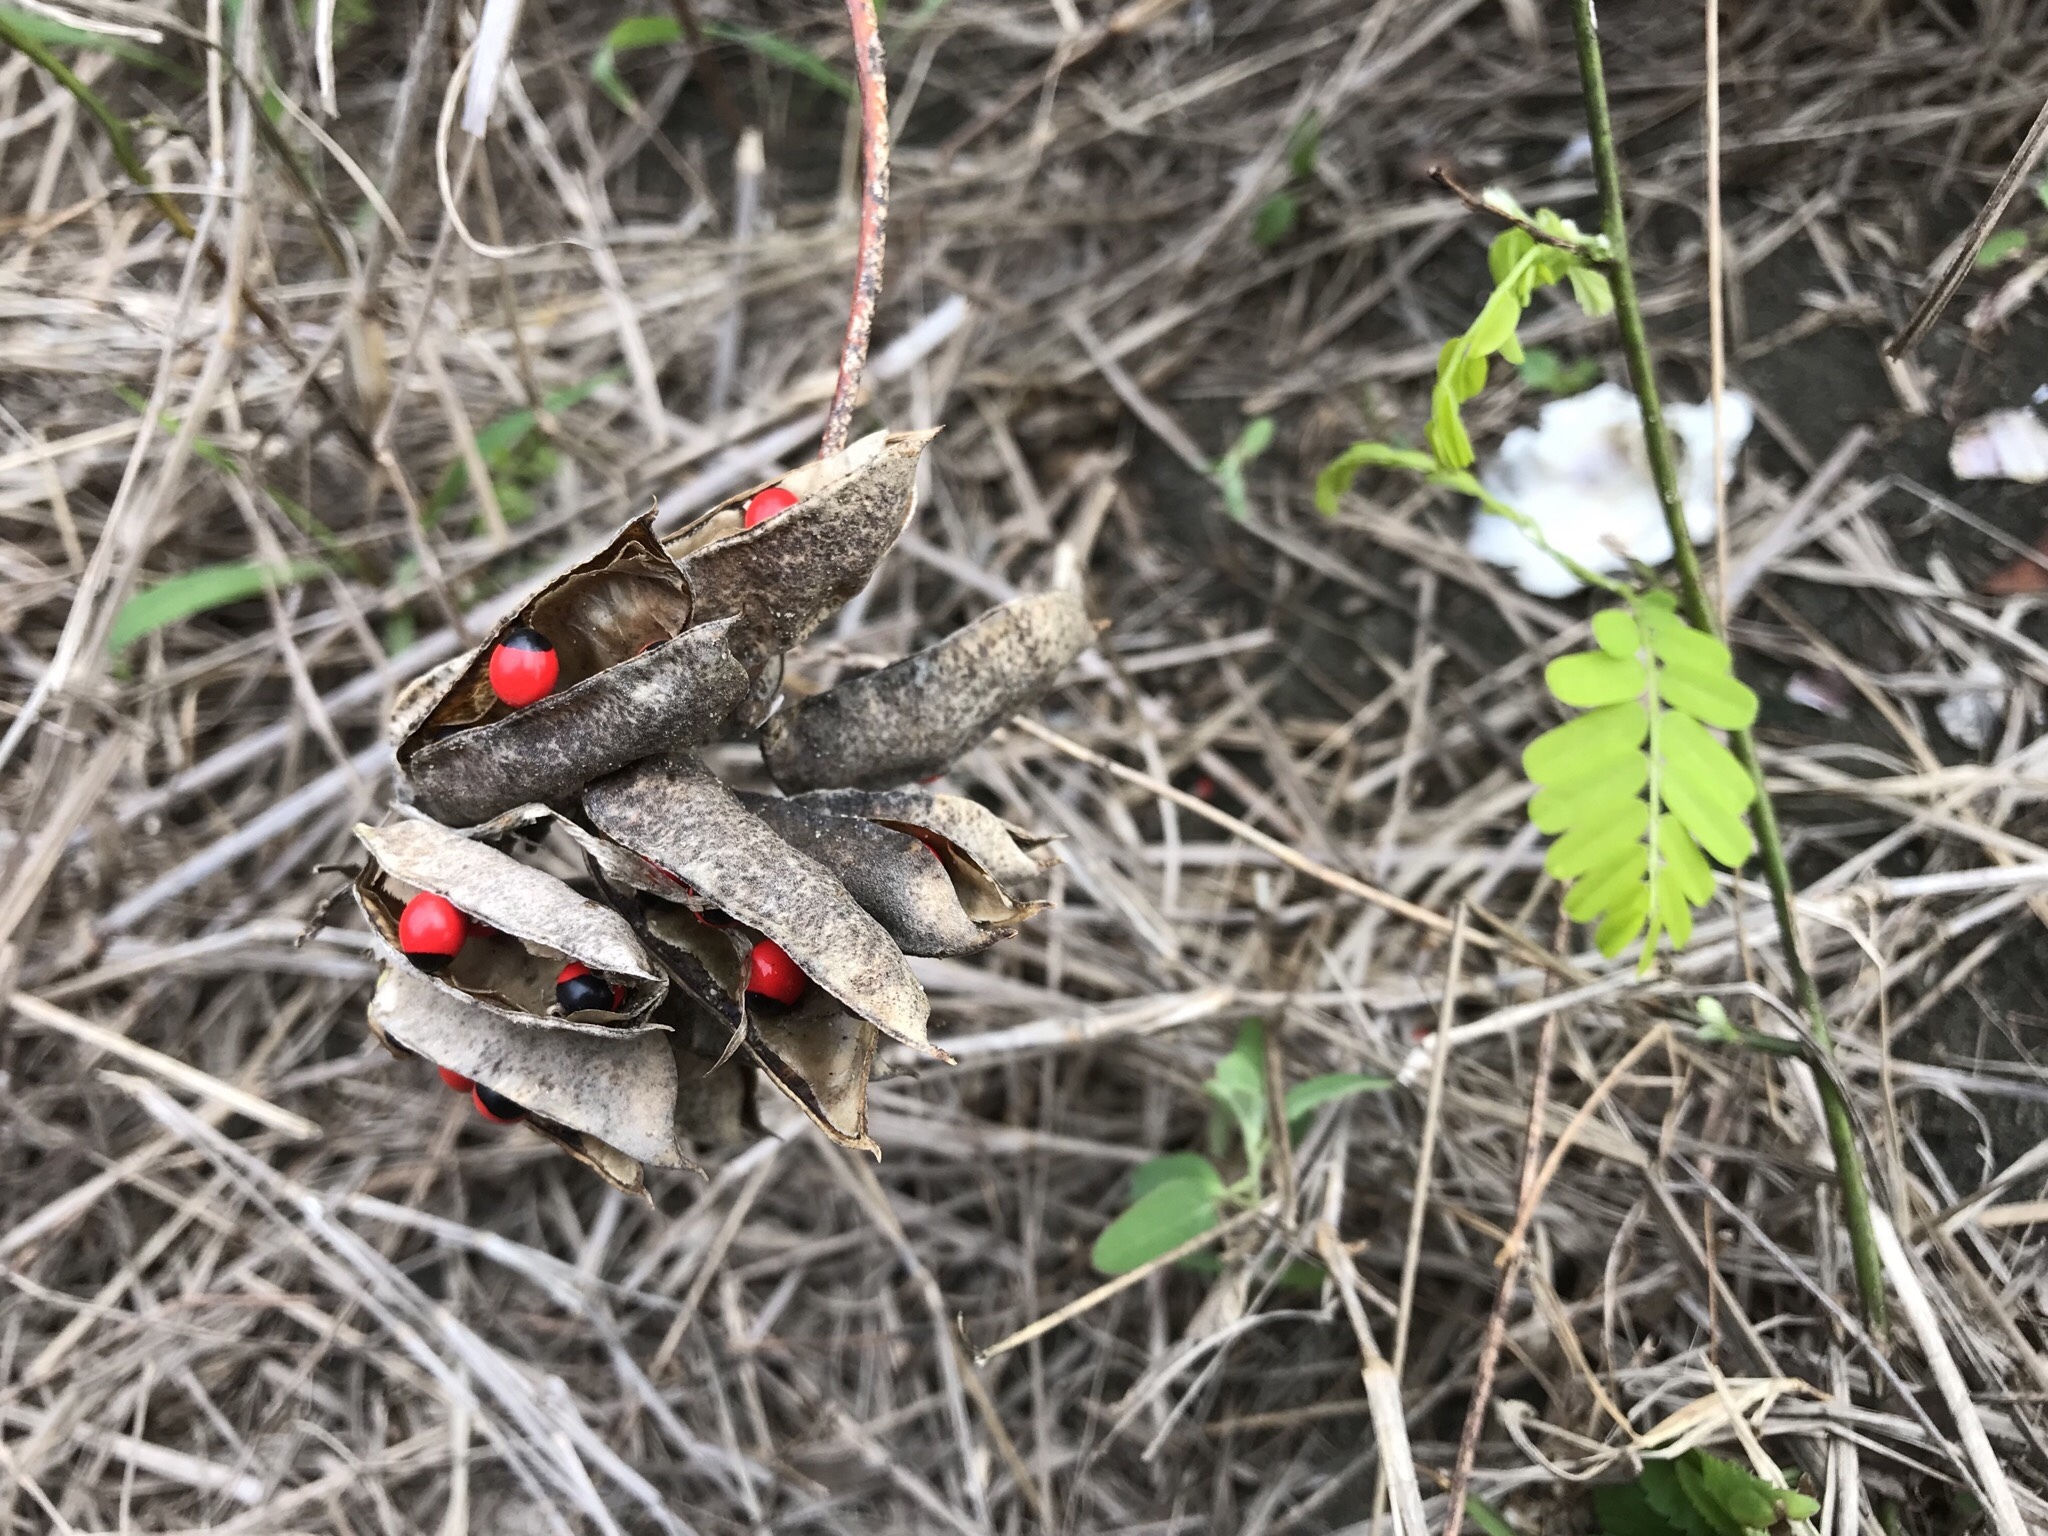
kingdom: Plantae
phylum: Tracheophyta
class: Magnoliopsida
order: Fabales
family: Fabaceae
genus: Abrus
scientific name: Abrus precatorius
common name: Rosarypea
